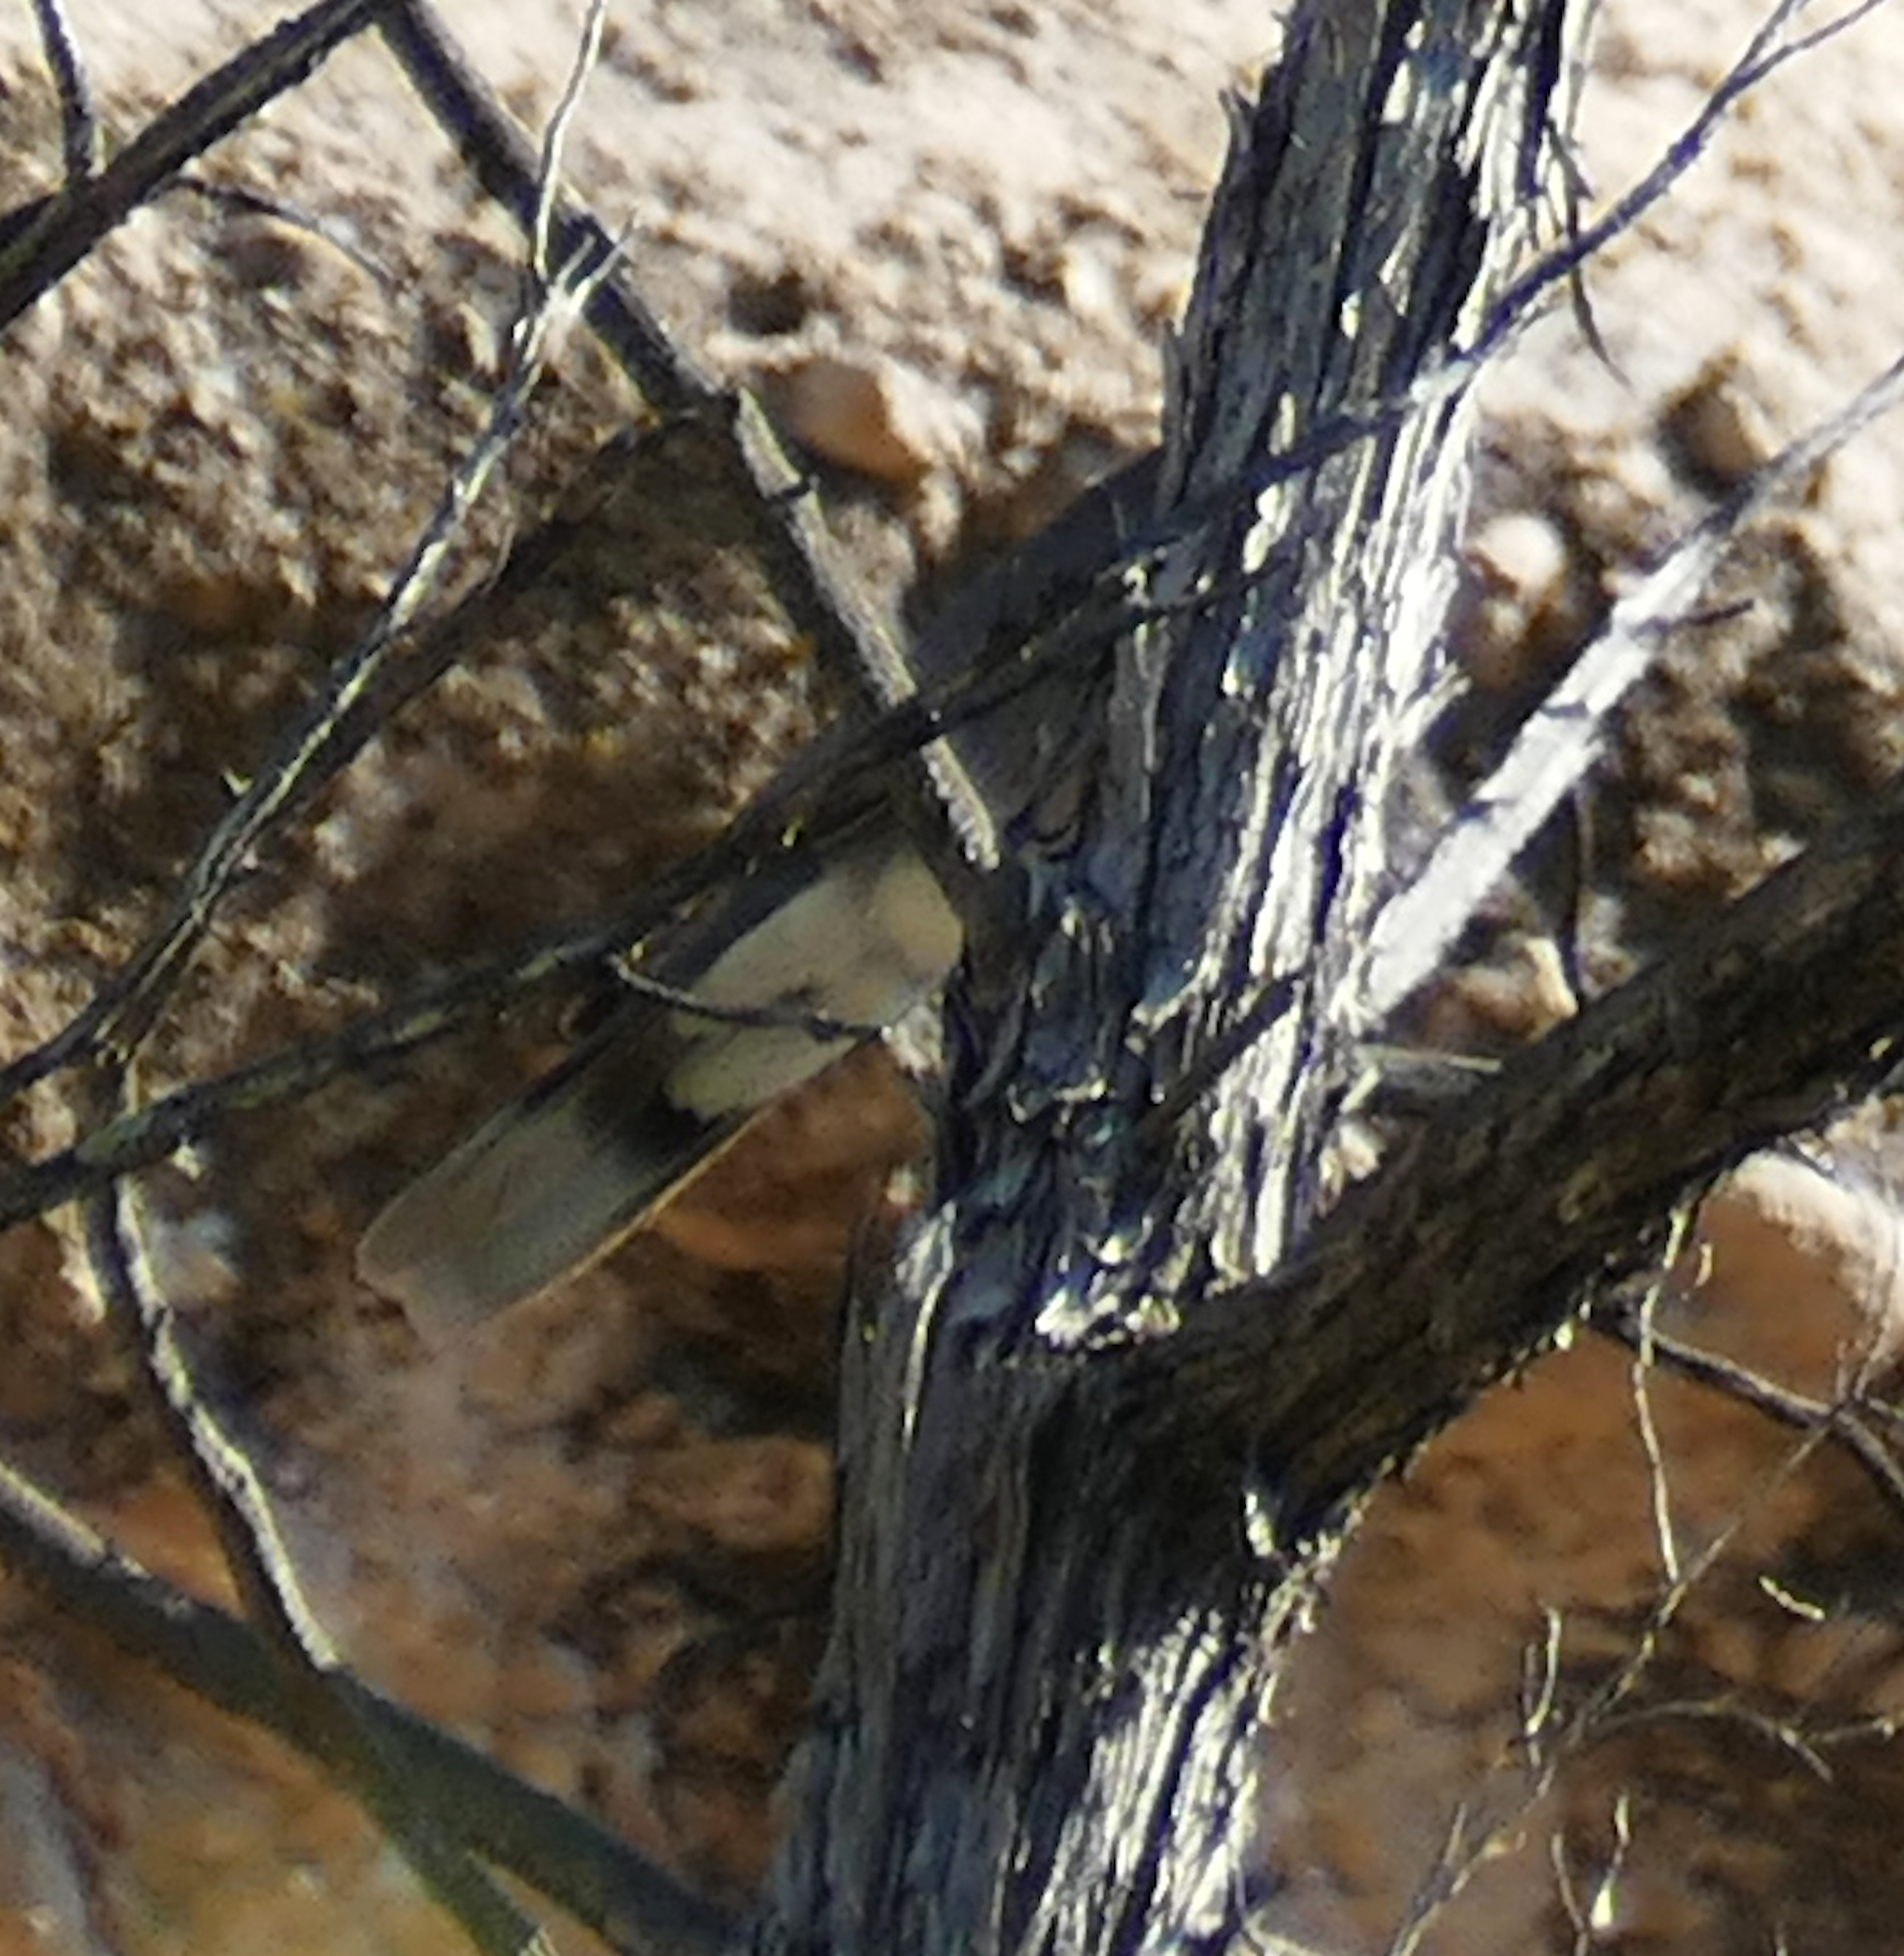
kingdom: Animalia
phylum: Chordata
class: Aves
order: Columbiformes
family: Columbidae
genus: Patagioenas
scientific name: Patagioenas fasciata
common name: Band-tailed pigeon
